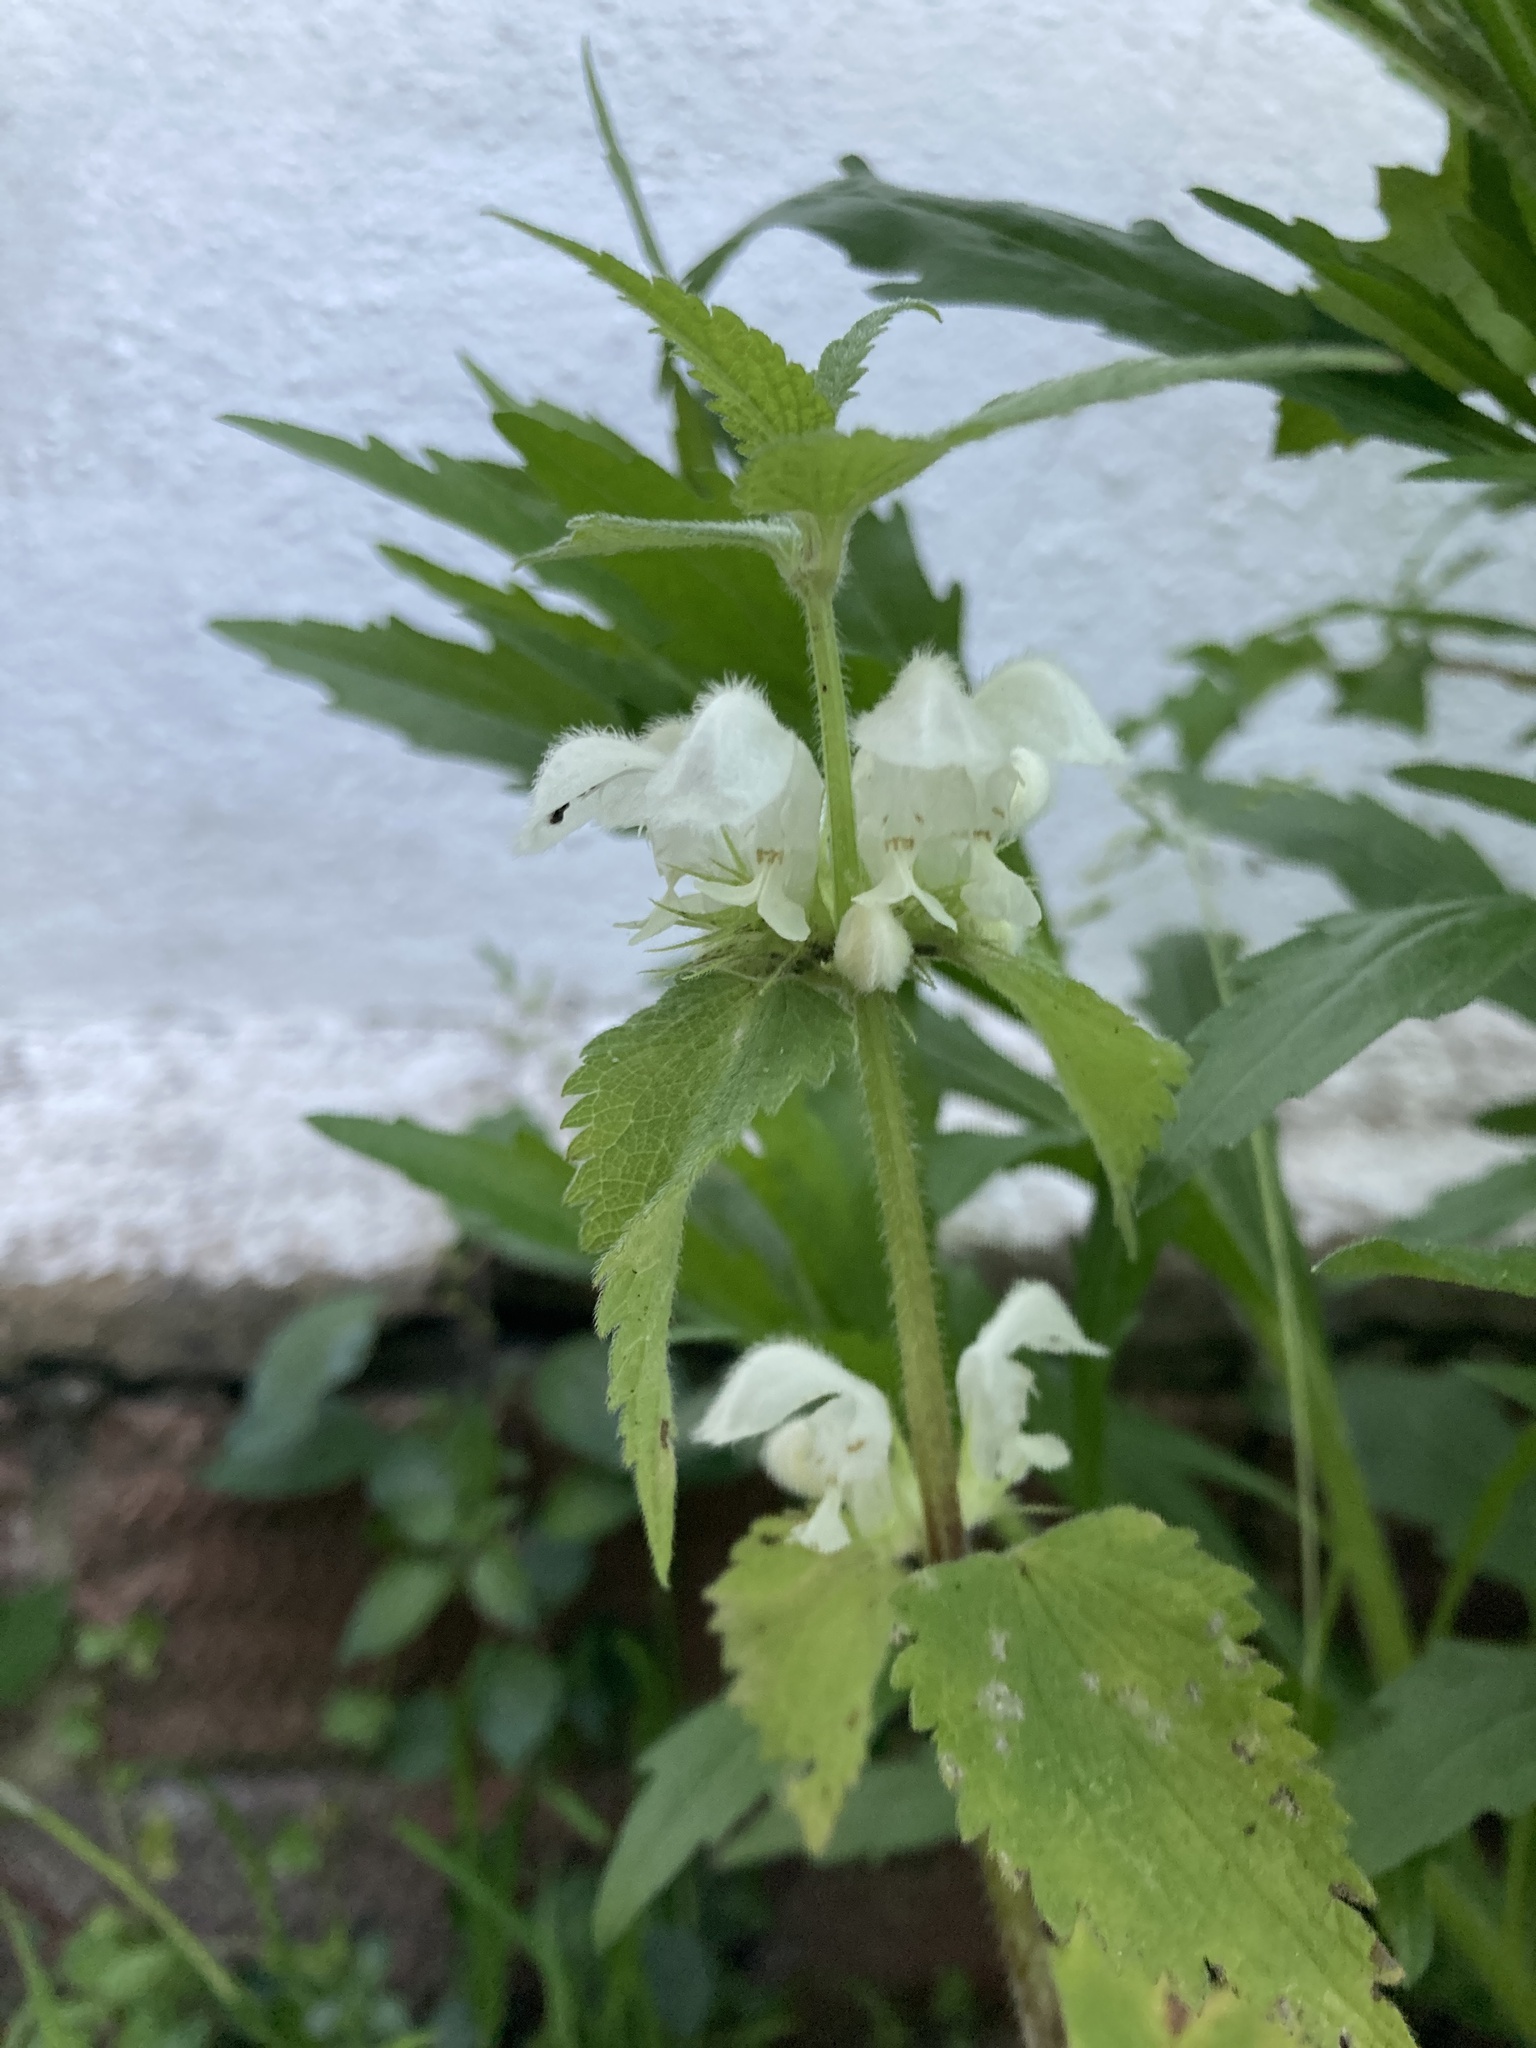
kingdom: Plantae
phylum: Tracheophyta
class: Magnoliopsida
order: Lamiales
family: Lamiaceae
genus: Lamium
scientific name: Lamium album
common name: White dead-nettle
